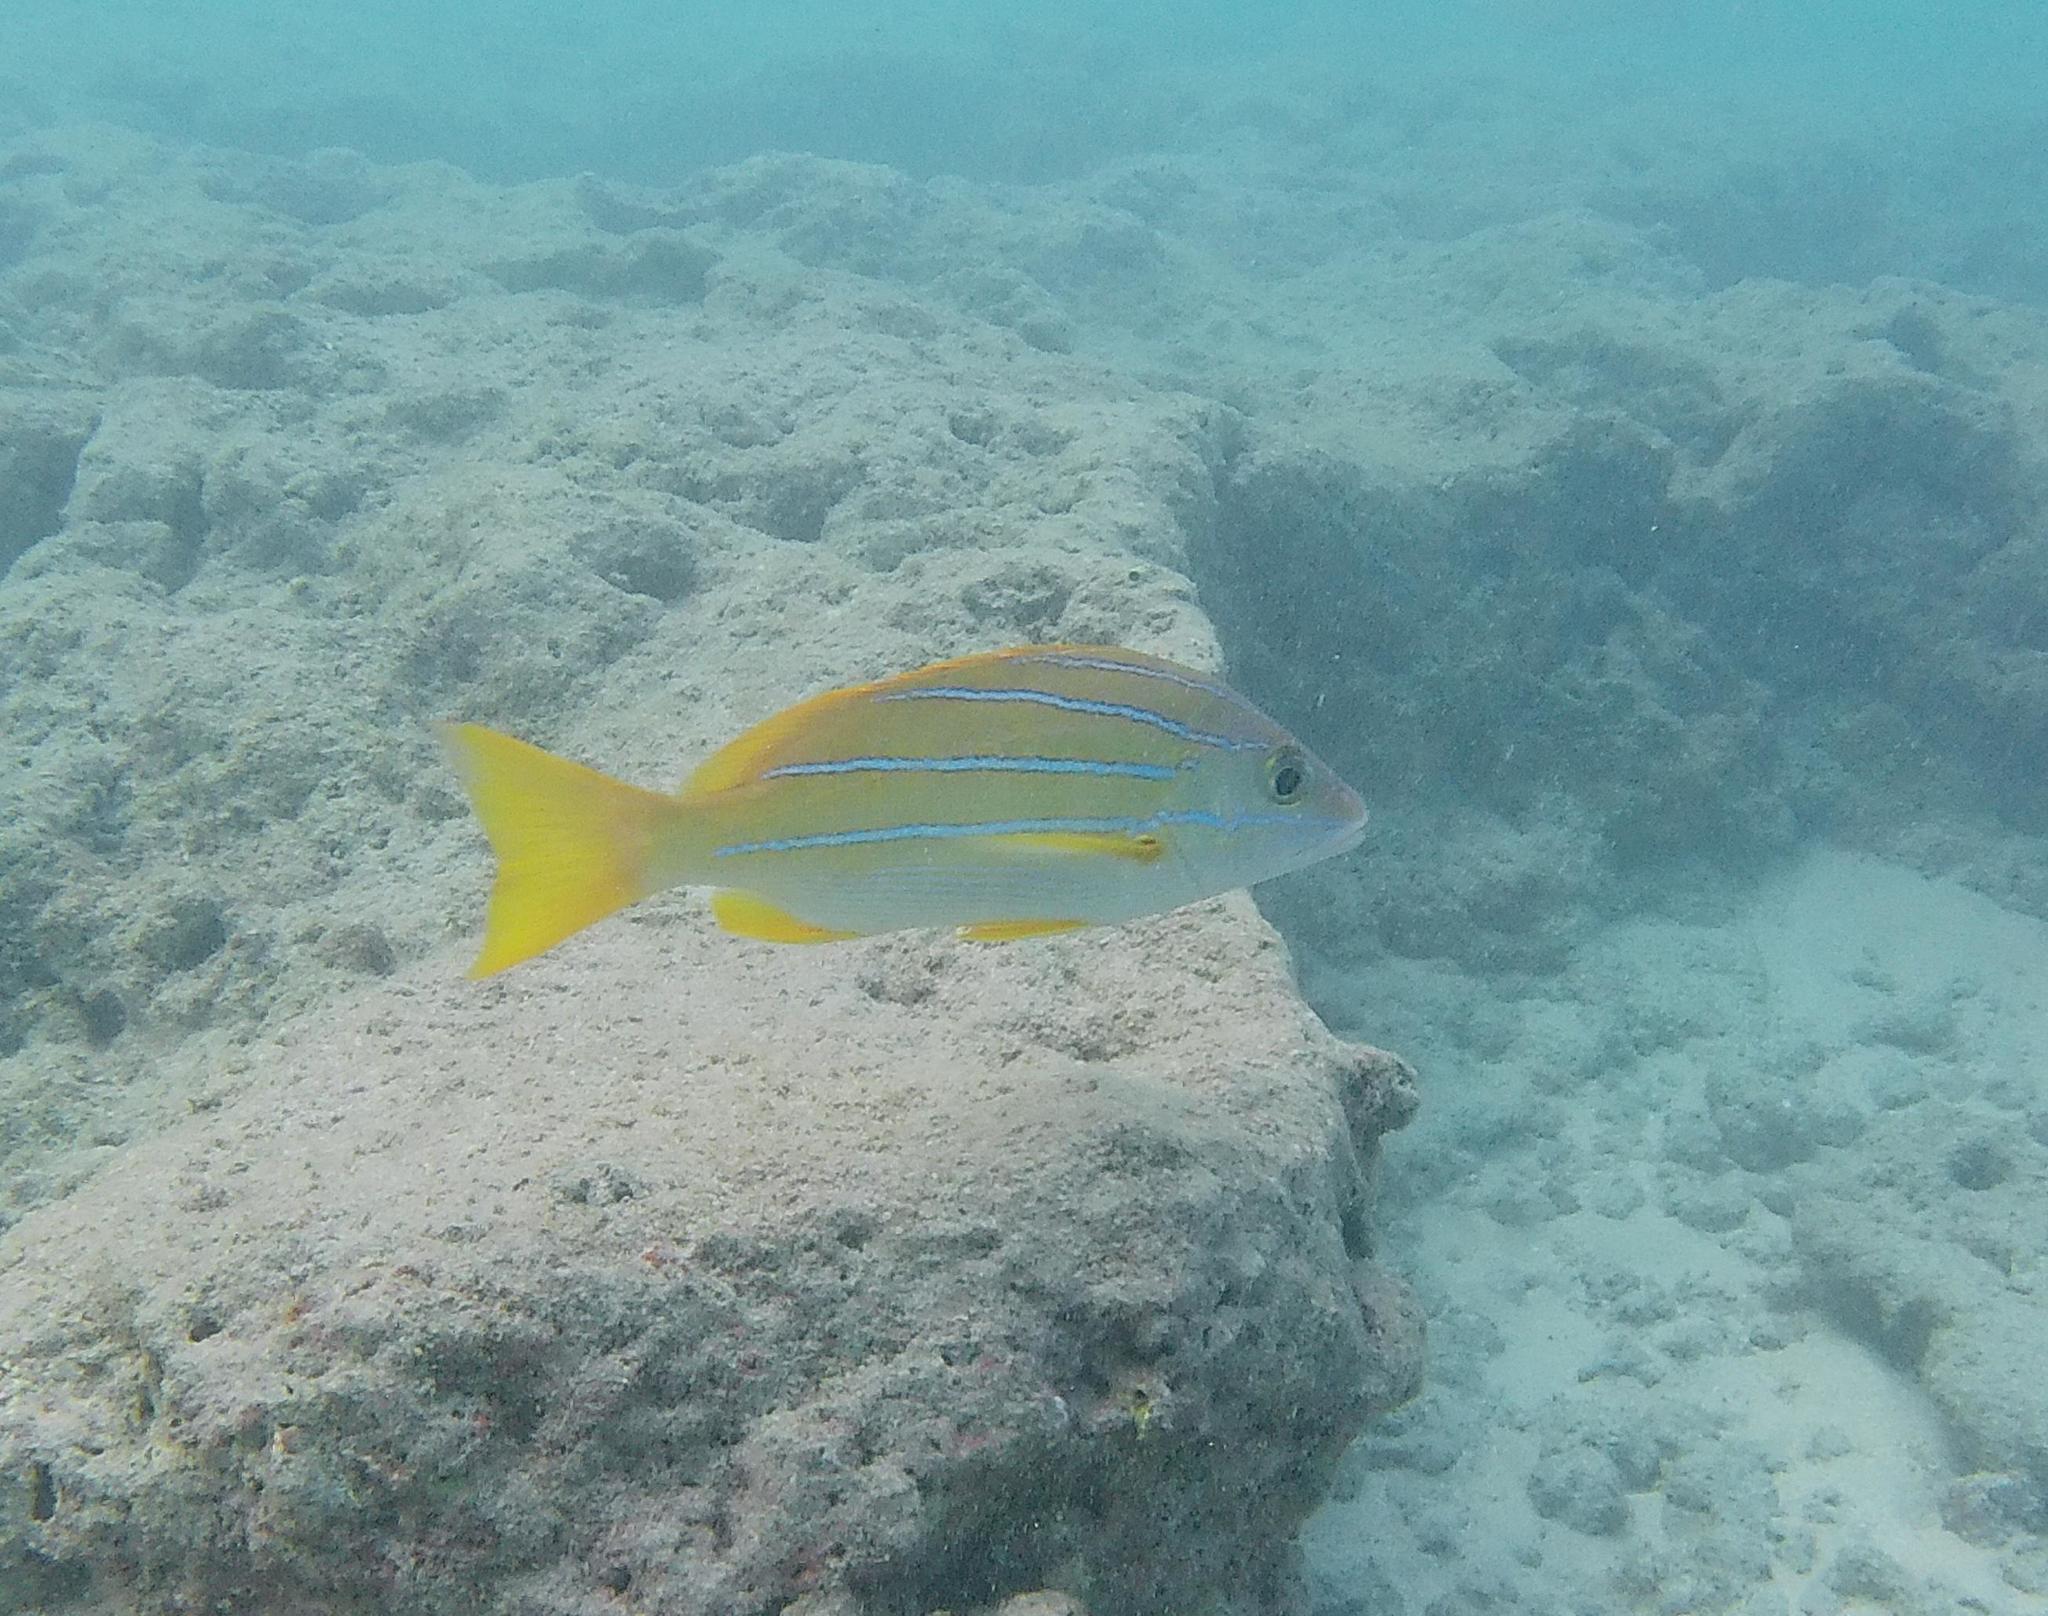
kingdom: Animalia
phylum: Chordata
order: Perciformes
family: Lutjanidae
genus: Lutjanus
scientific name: Lutjanus kasmira
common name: Common bluestripe snapper
